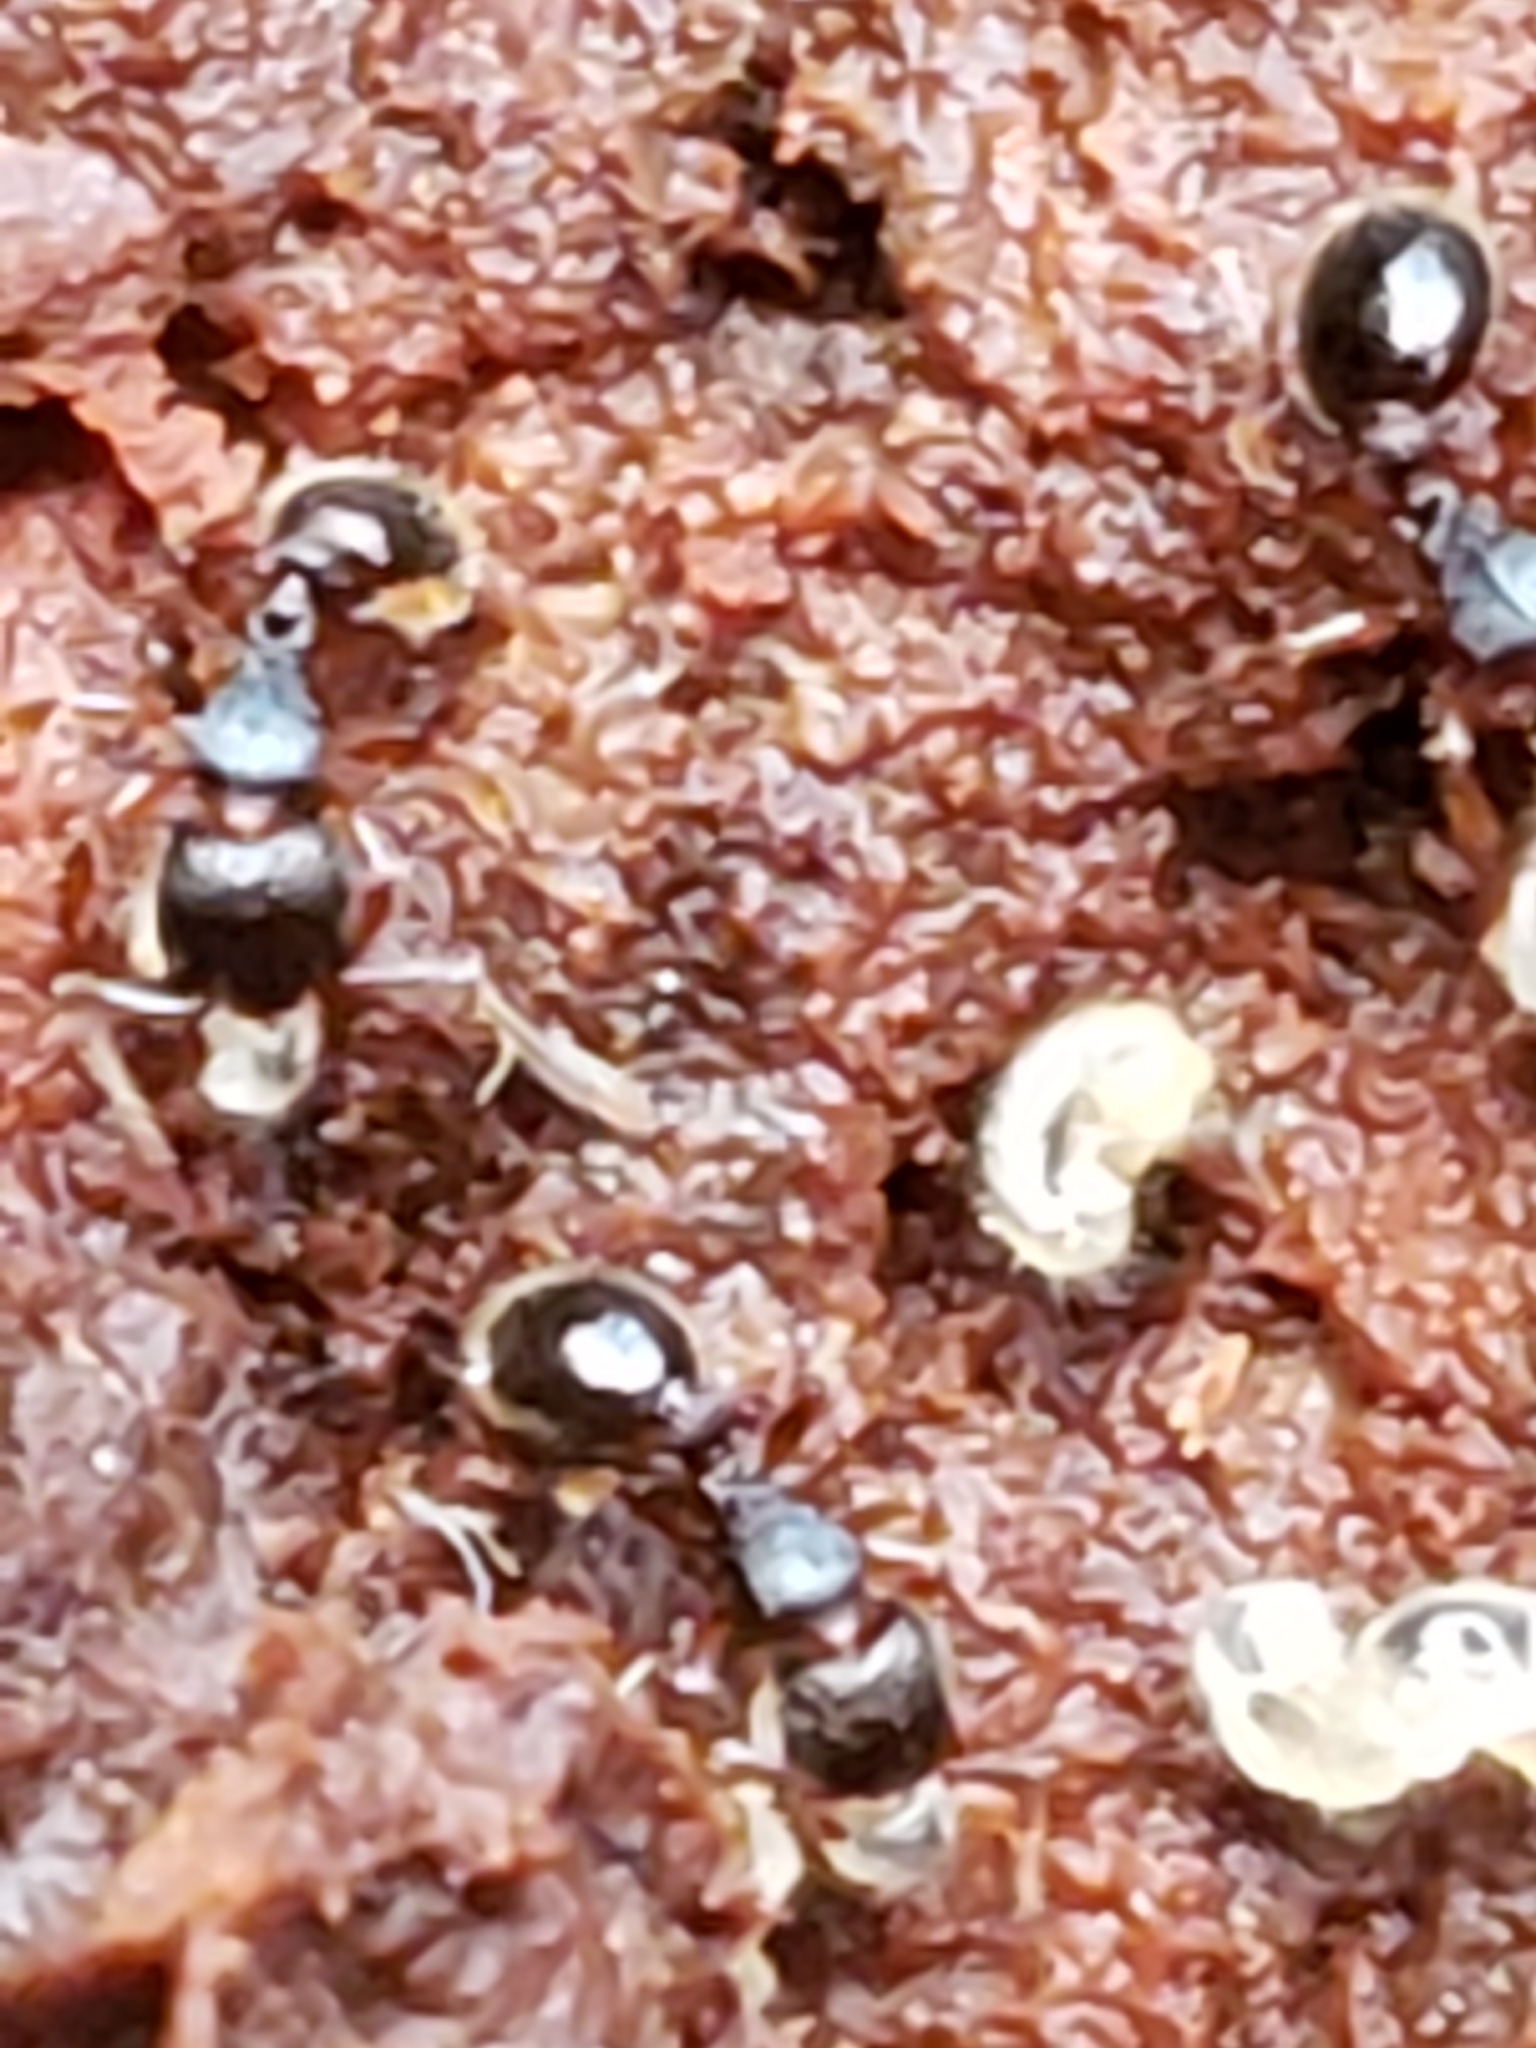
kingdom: Animalia
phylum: Arthropoda
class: Insecta
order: Hymenoptera
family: Formicidae
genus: Myrmecina
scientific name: Myrmecina americana
